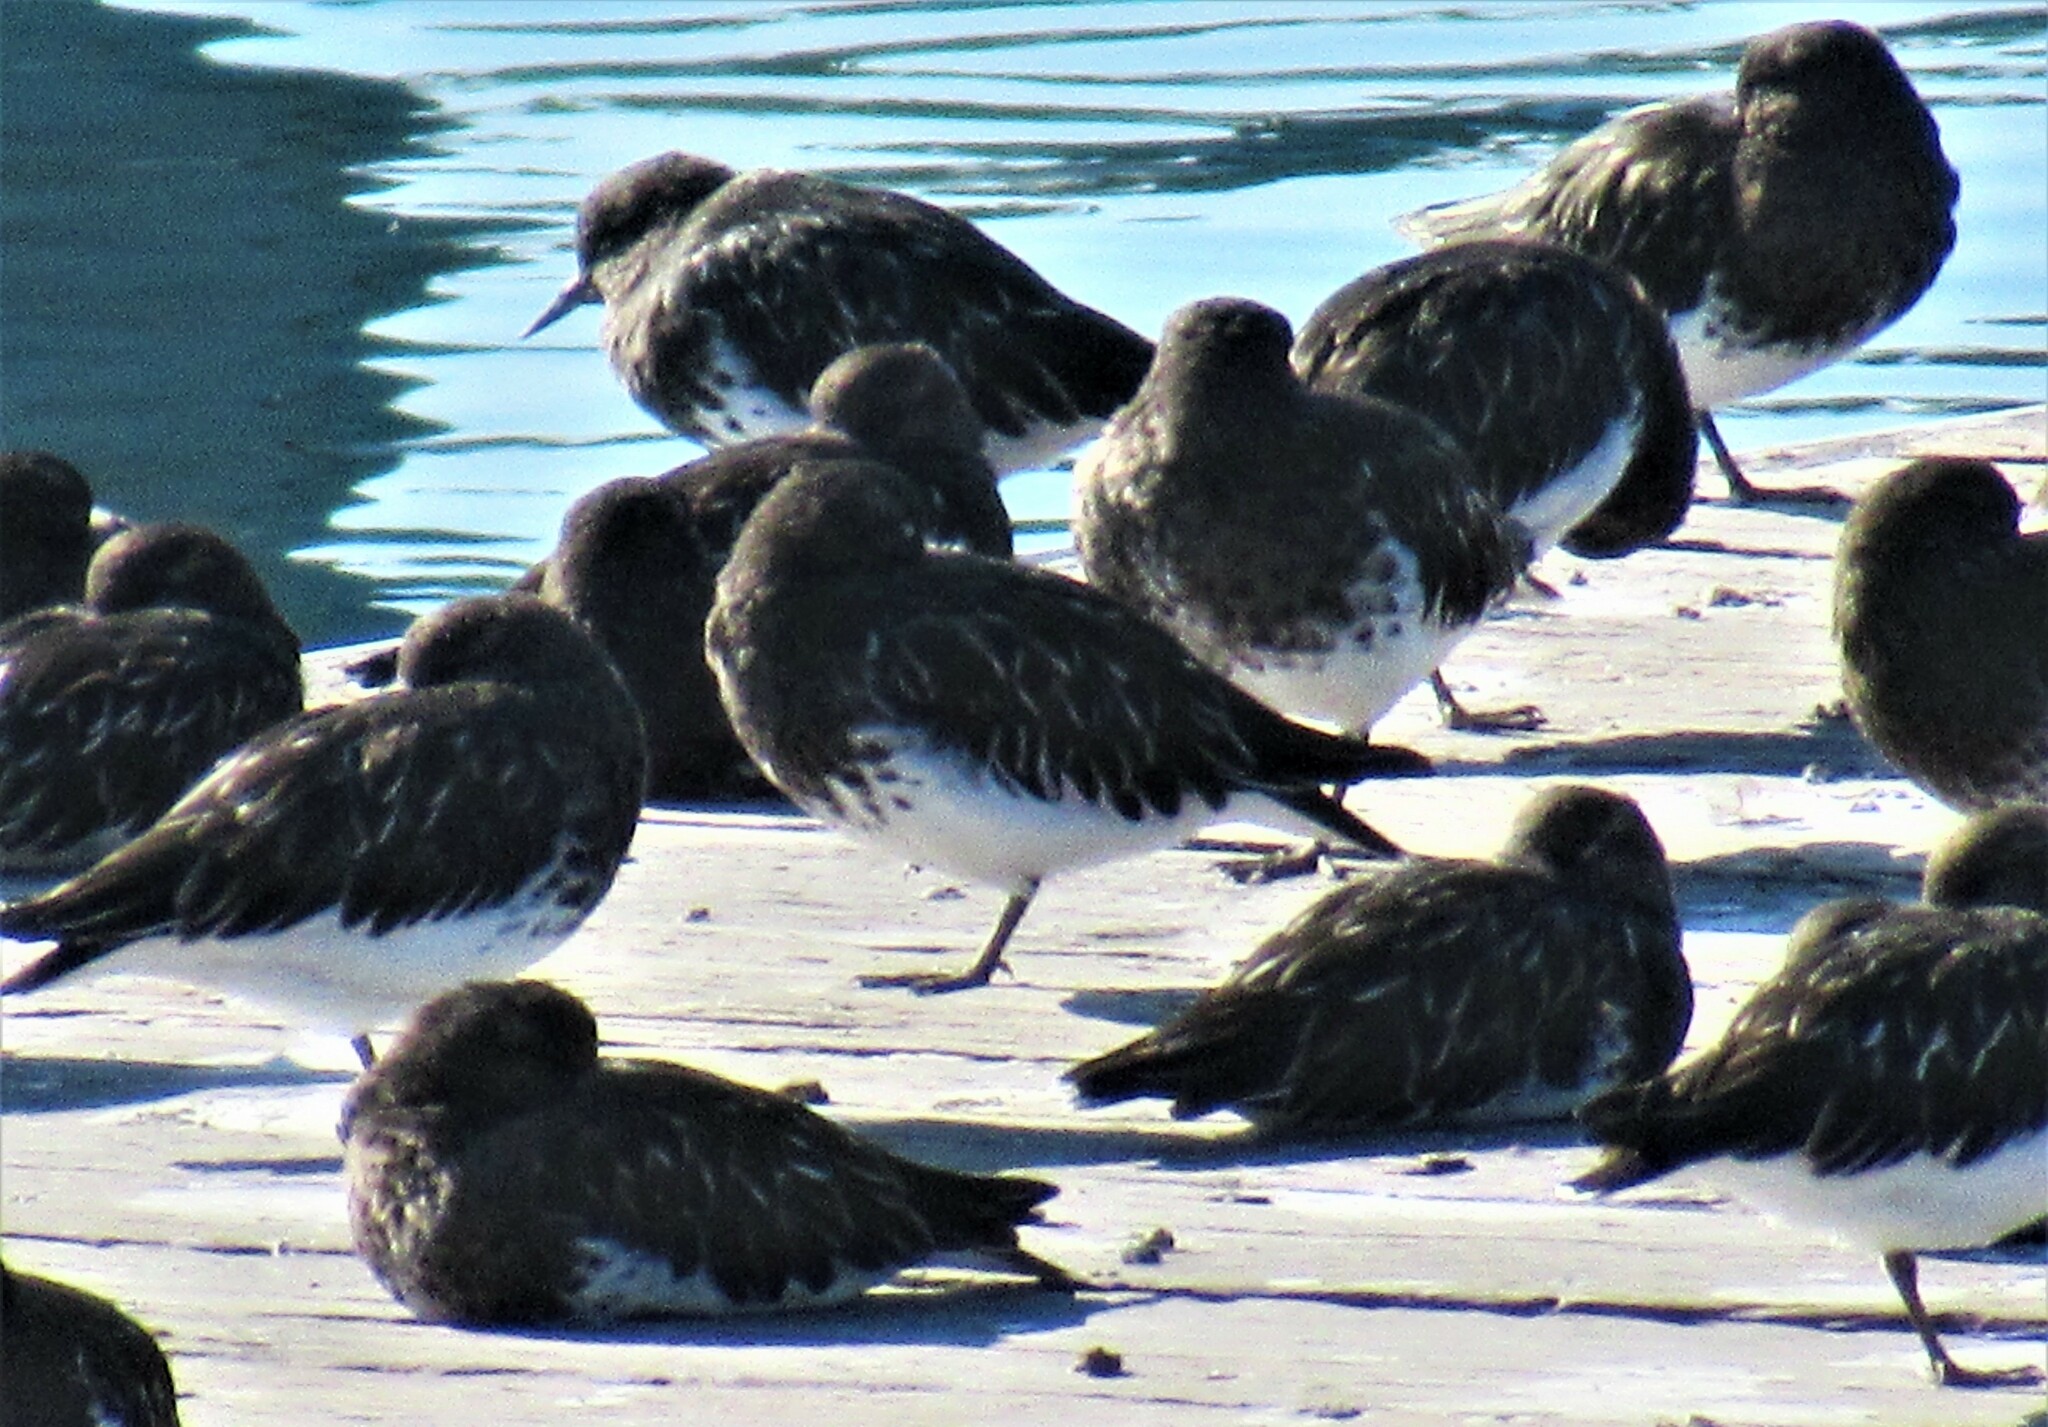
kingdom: Animalia
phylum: Chordata
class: Aves
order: Charadriiformes
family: Scolopacidae
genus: Arenaria
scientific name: Arenaria melanocephala
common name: Black turnstone
